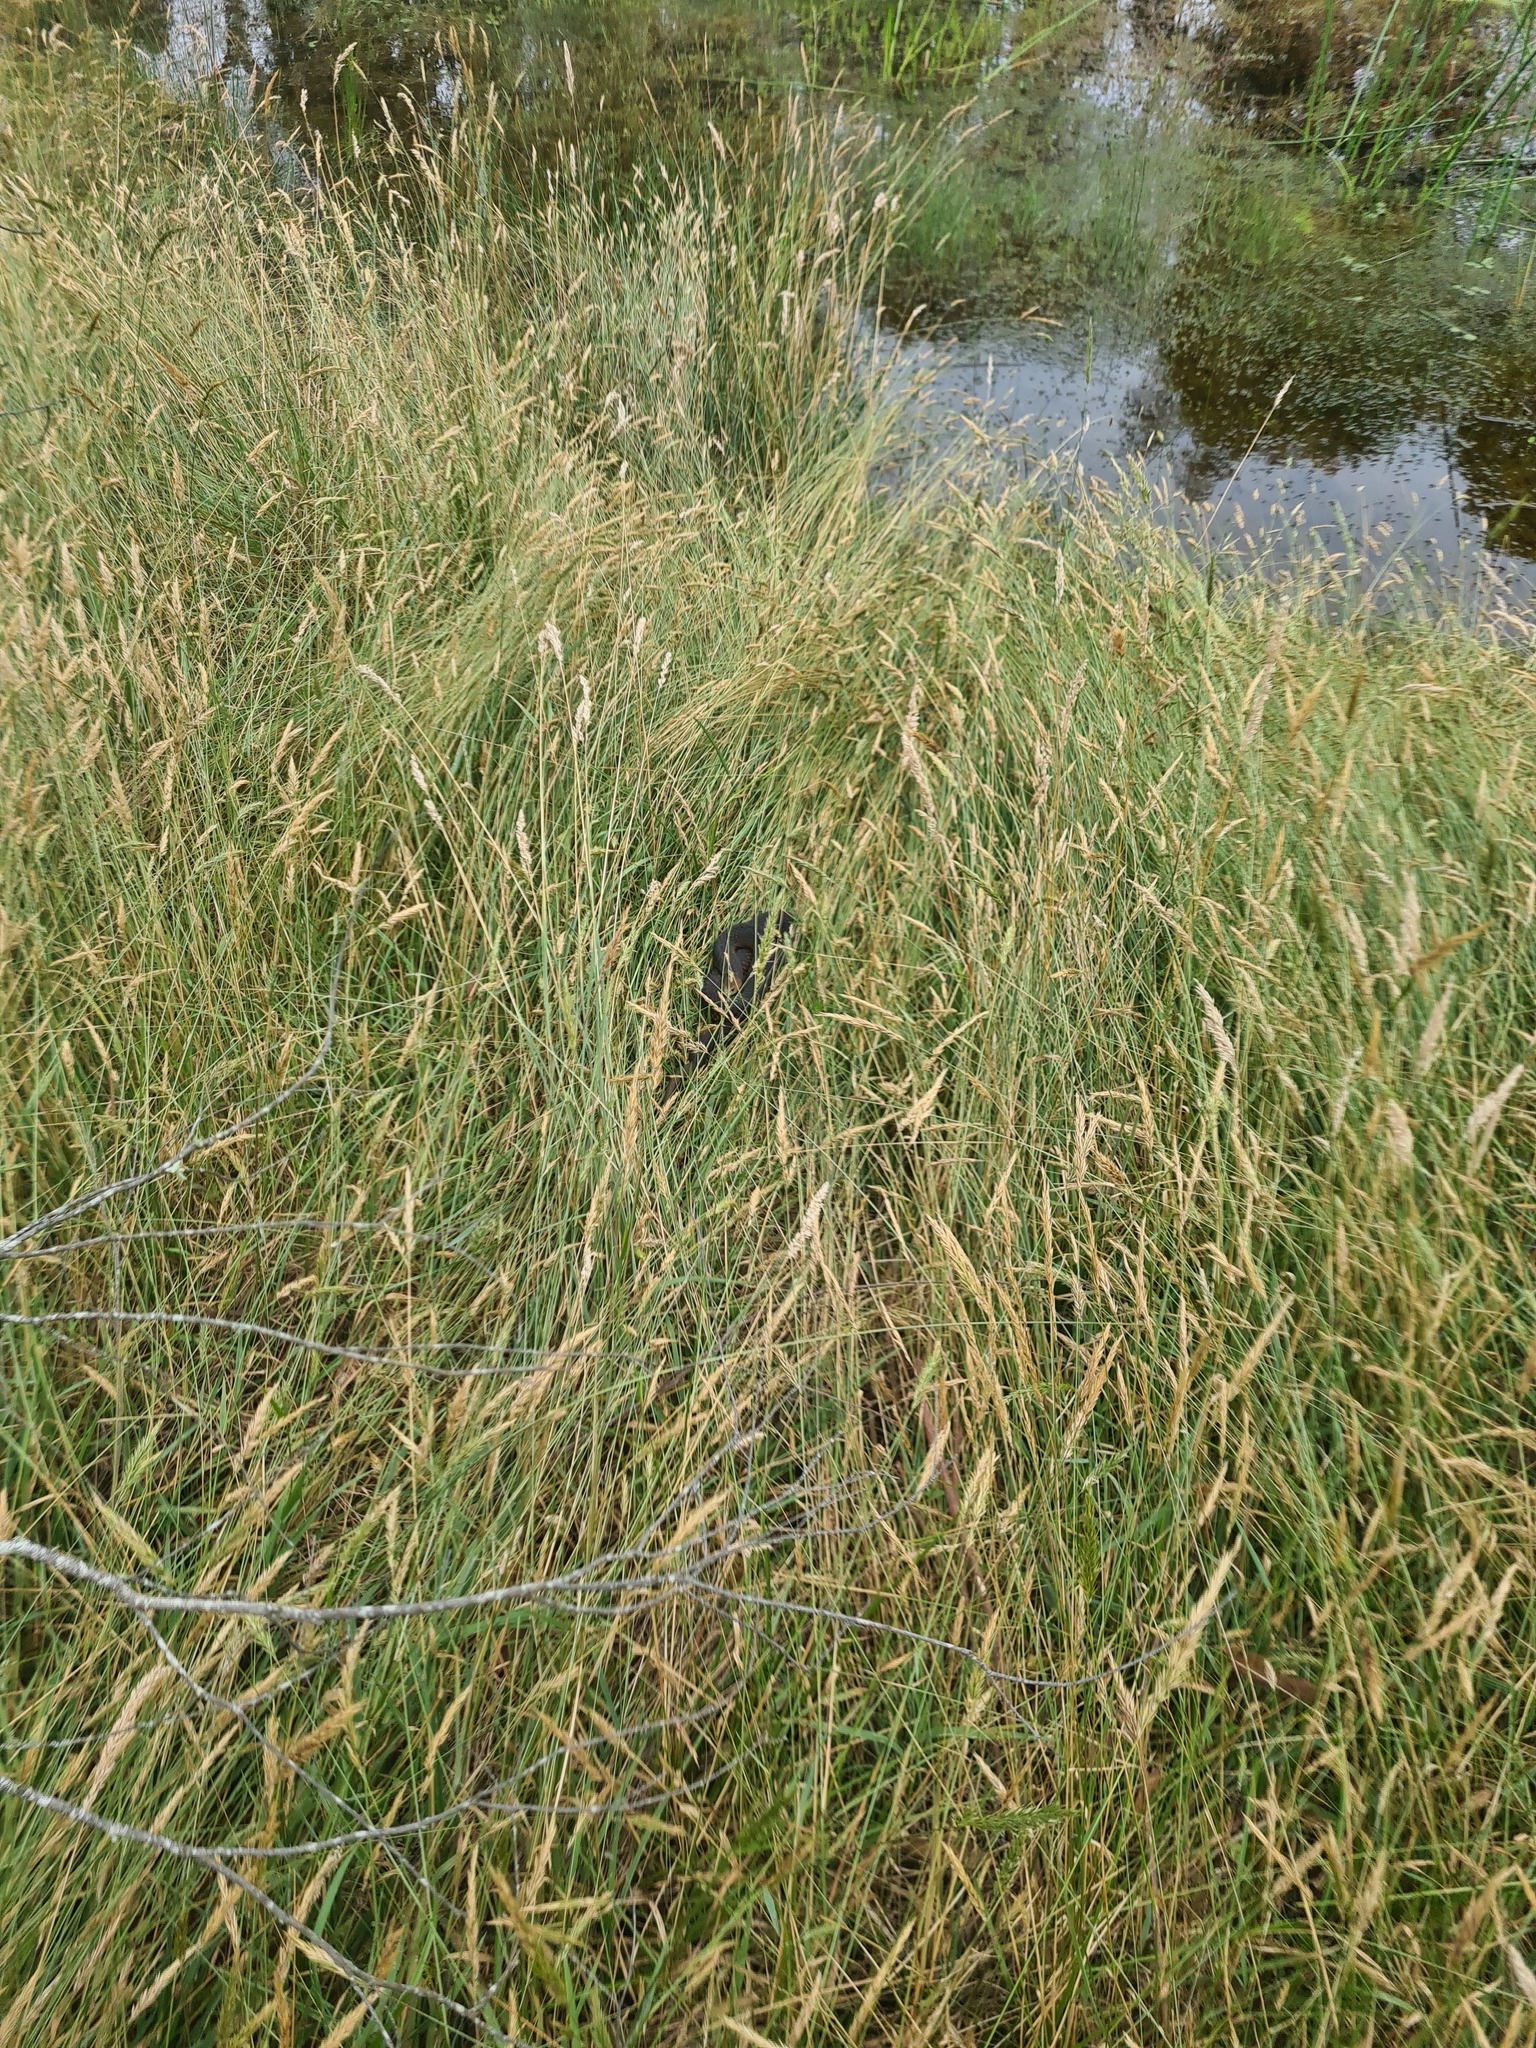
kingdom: Animalia
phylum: Chordata
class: Squamata
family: Elapidae
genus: Austrelaps
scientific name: Austrelaps superbus
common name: Copperhead snake
